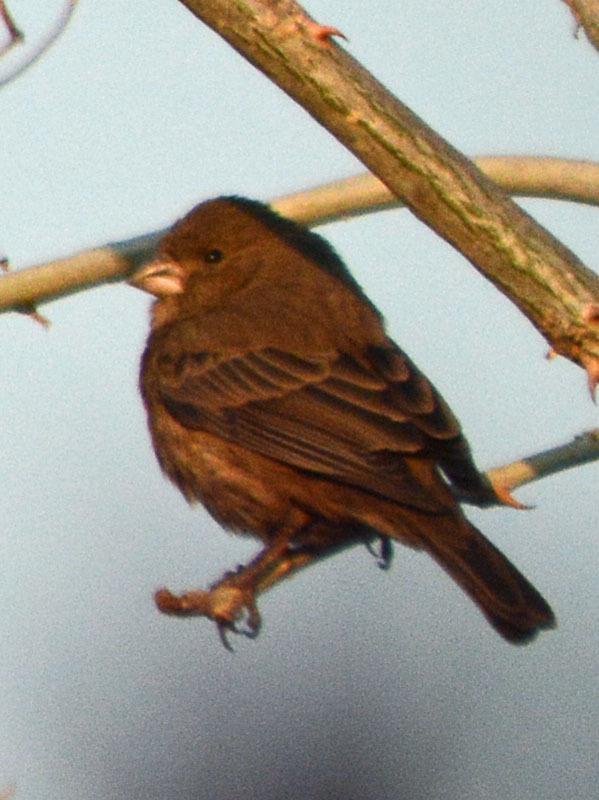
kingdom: Animalia
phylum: Chordata
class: Aves
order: Passeriformes
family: Fringillidae
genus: Haemorhous
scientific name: Haemorhous mexicanus
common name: House finch
